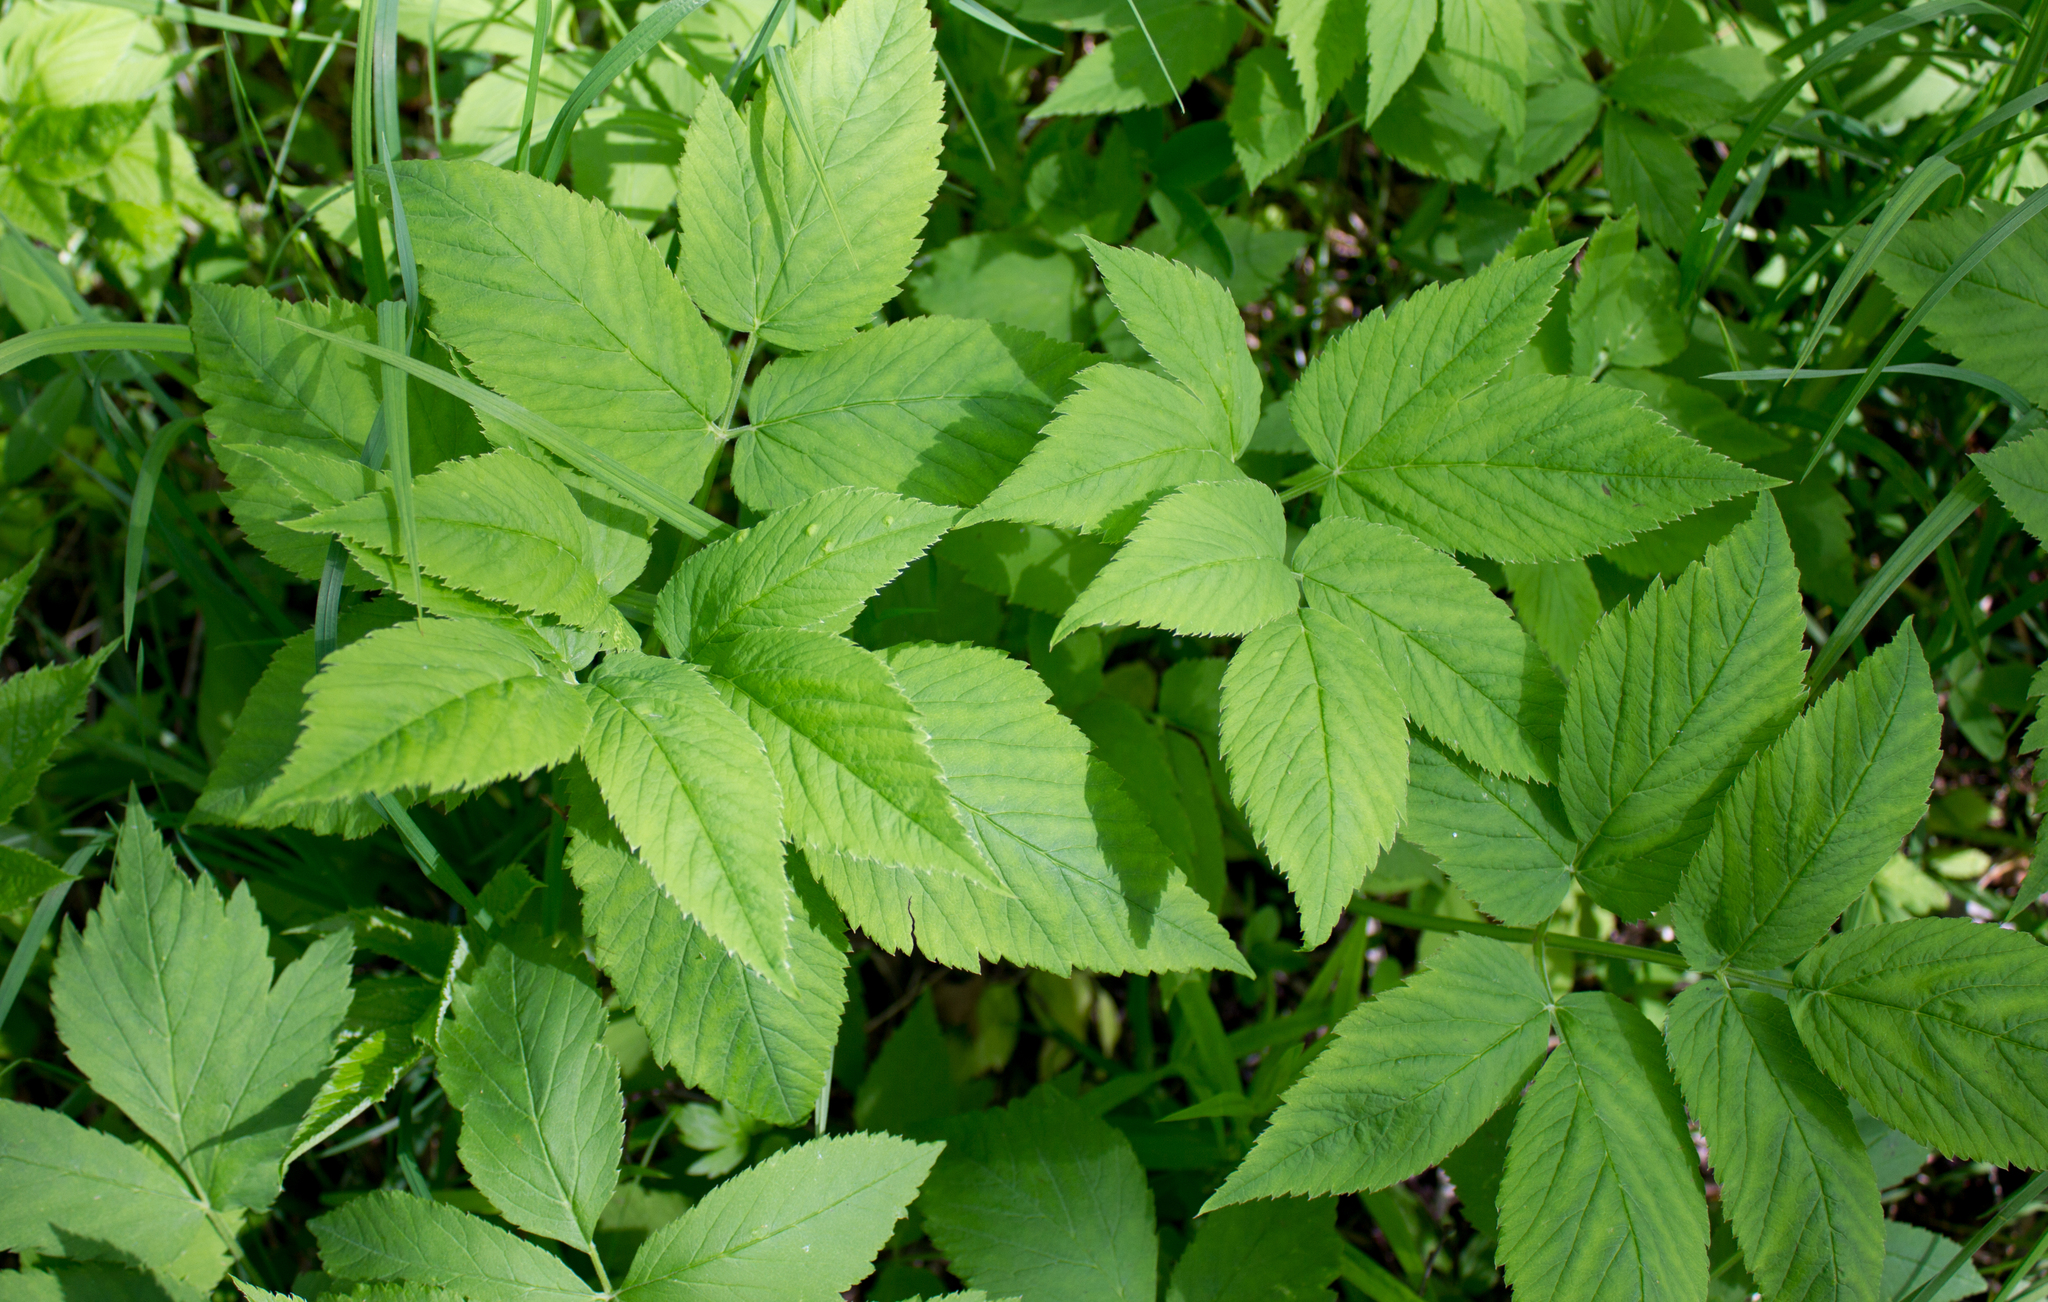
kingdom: Plantae
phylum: Tracheophyta
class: Magnoliopsida
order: Apiales
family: Apiaceae
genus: Aegopodium
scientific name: Aegopodium podagraria
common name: Ground-elder
